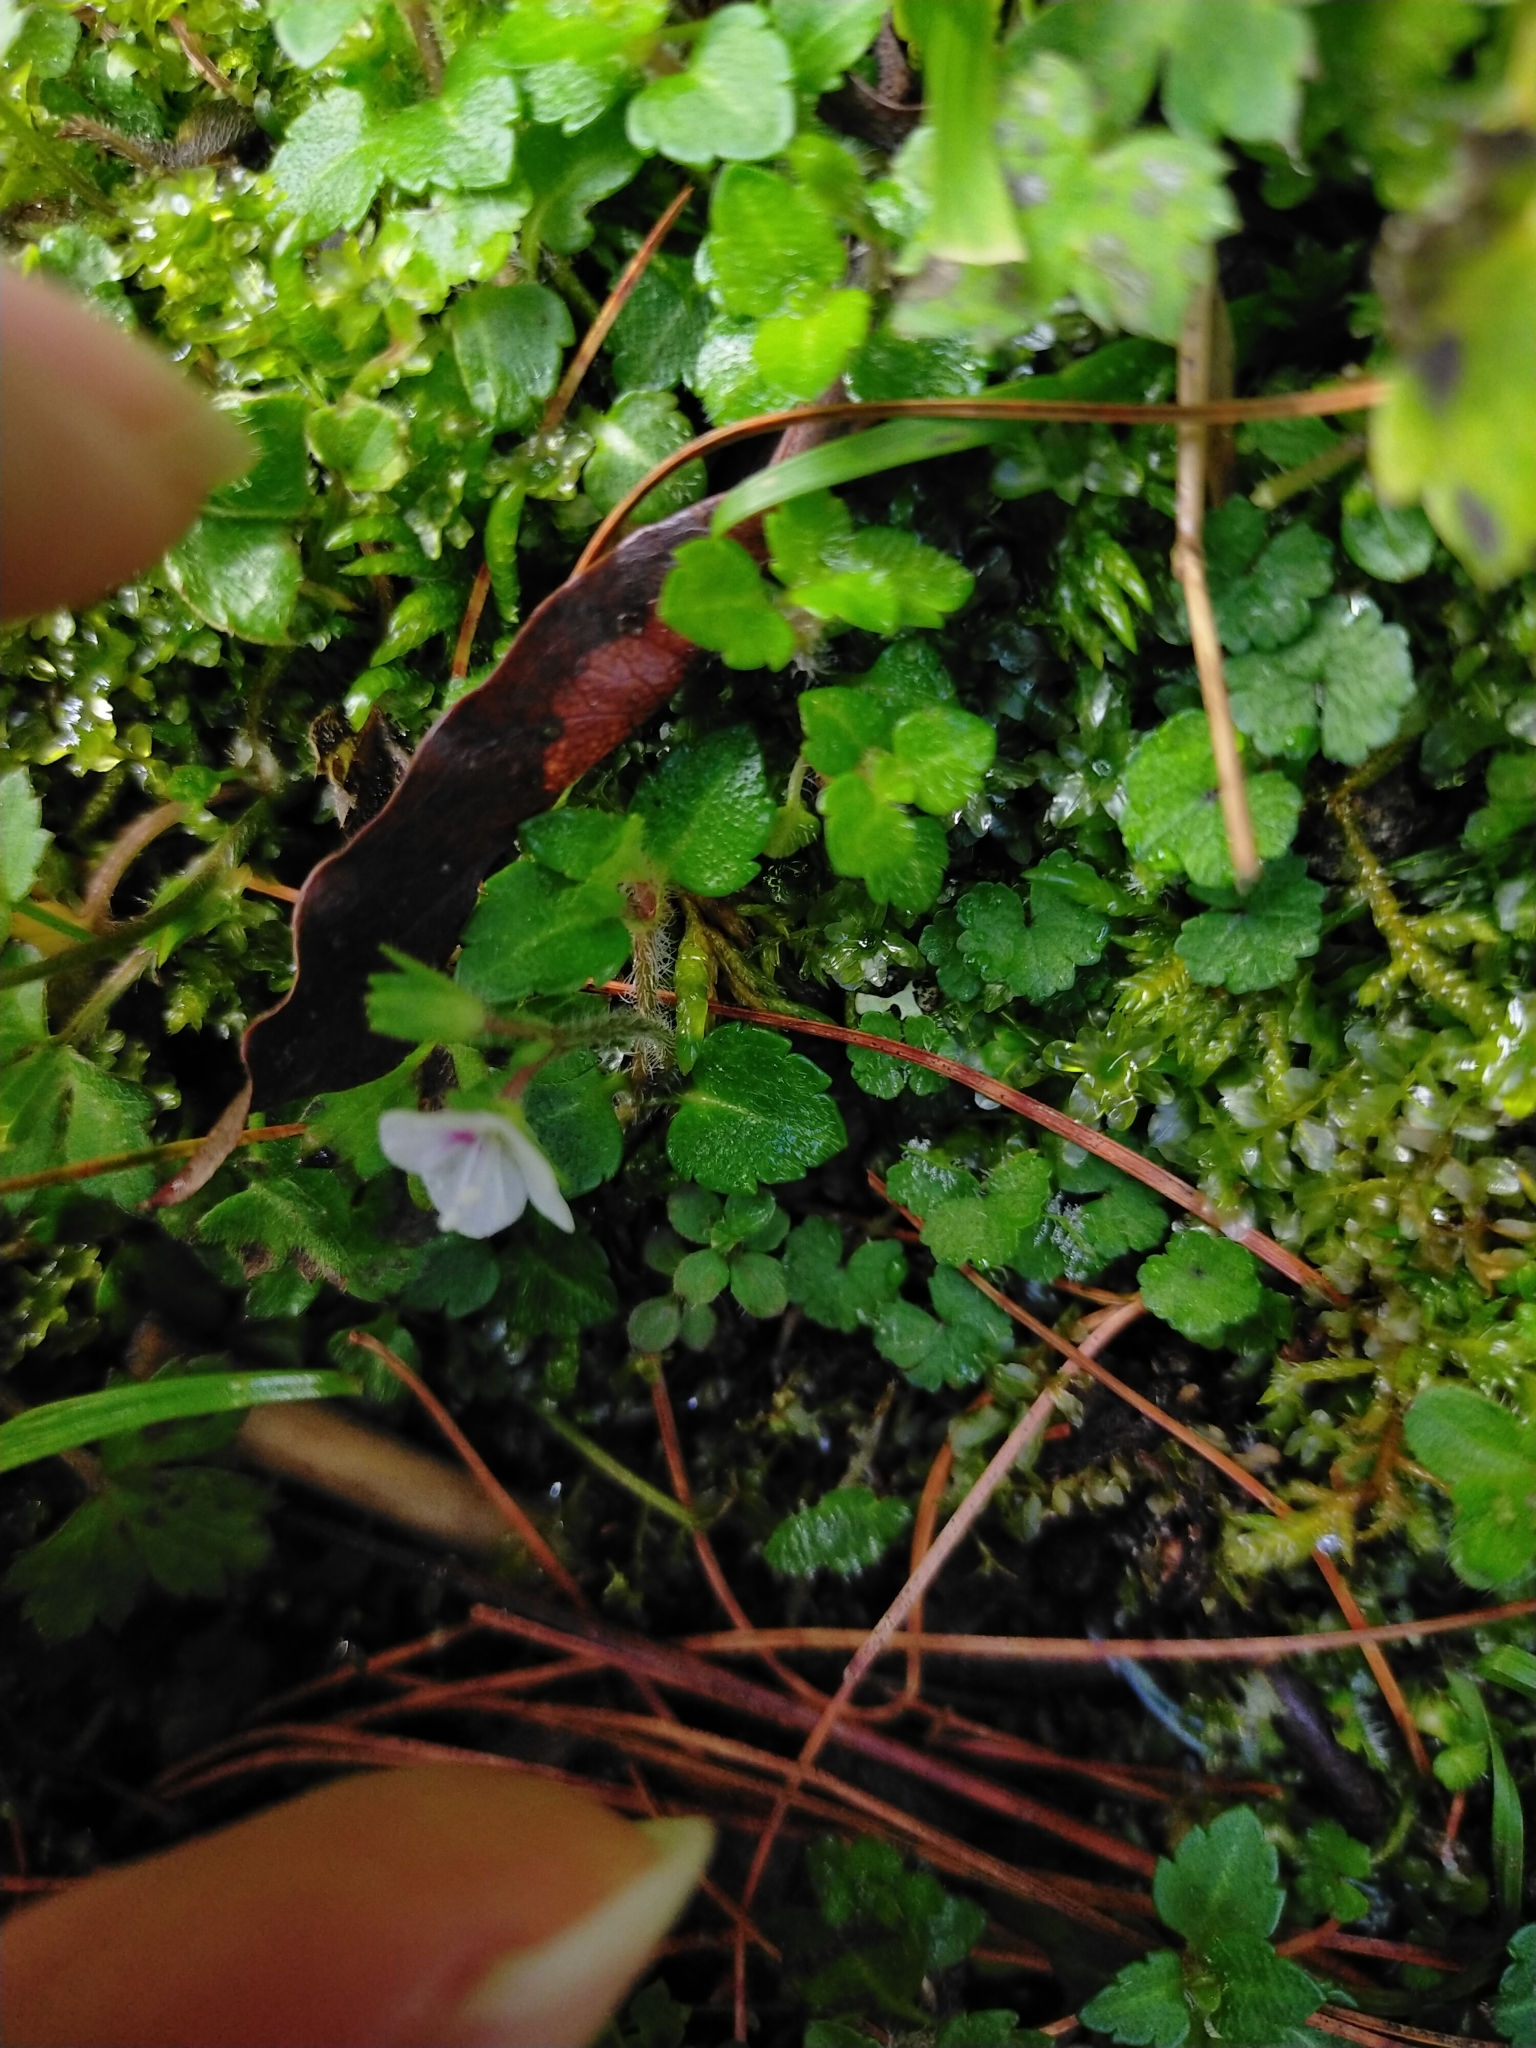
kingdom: Plantae
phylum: Tracheophyta
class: Magnoliopsida
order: Lamiales
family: Plantaginaceae
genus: Veronica
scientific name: Veronica oligosperma
